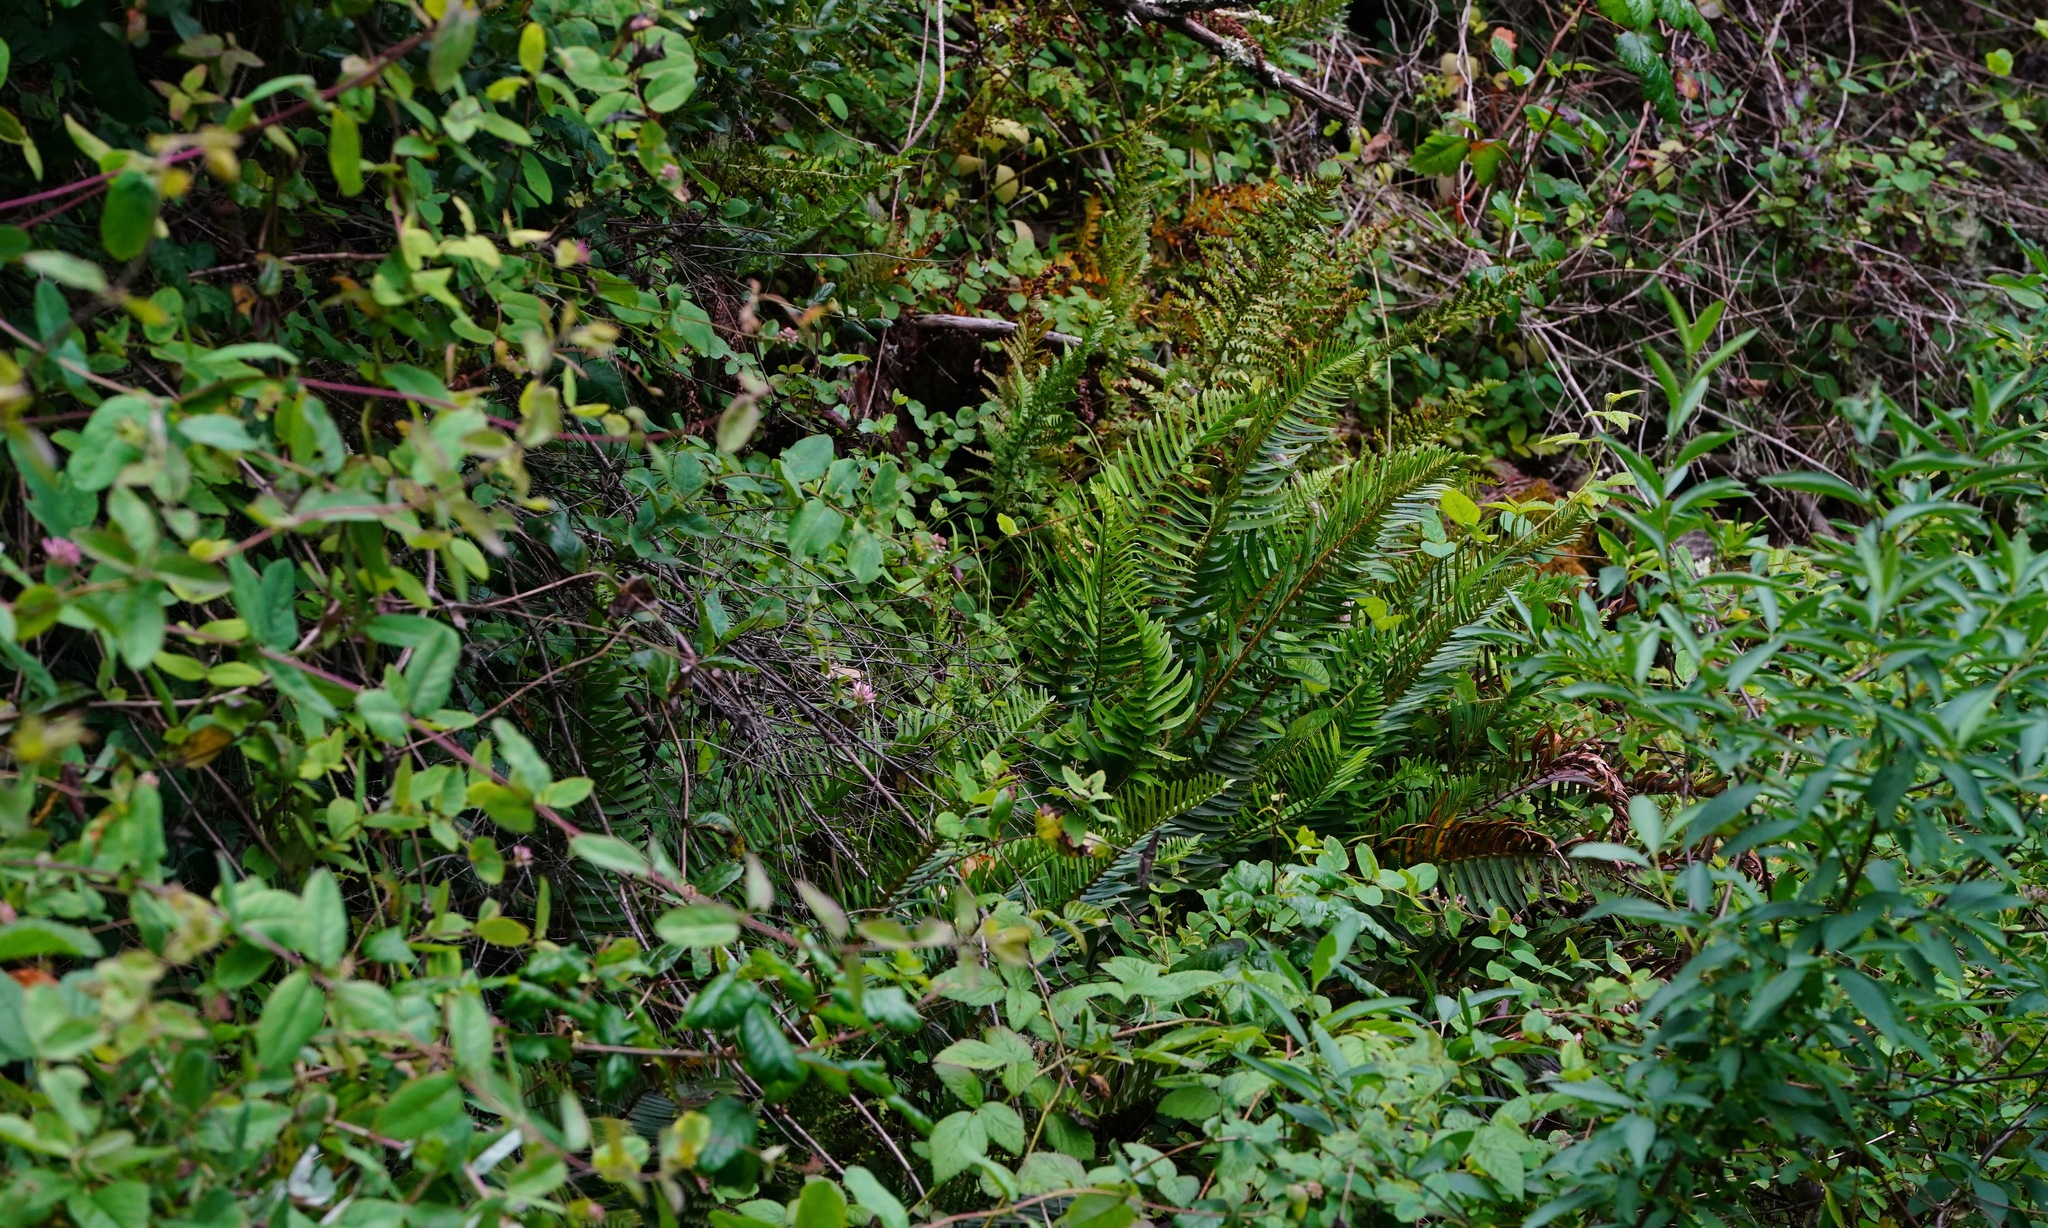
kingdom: Plantae
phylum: Tracheophyta
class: Polypodiopsida
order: Polypodiales
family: Dryopteridaceae
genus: Polystichum
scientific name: Polystichum munitum
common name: Western sword-fern
